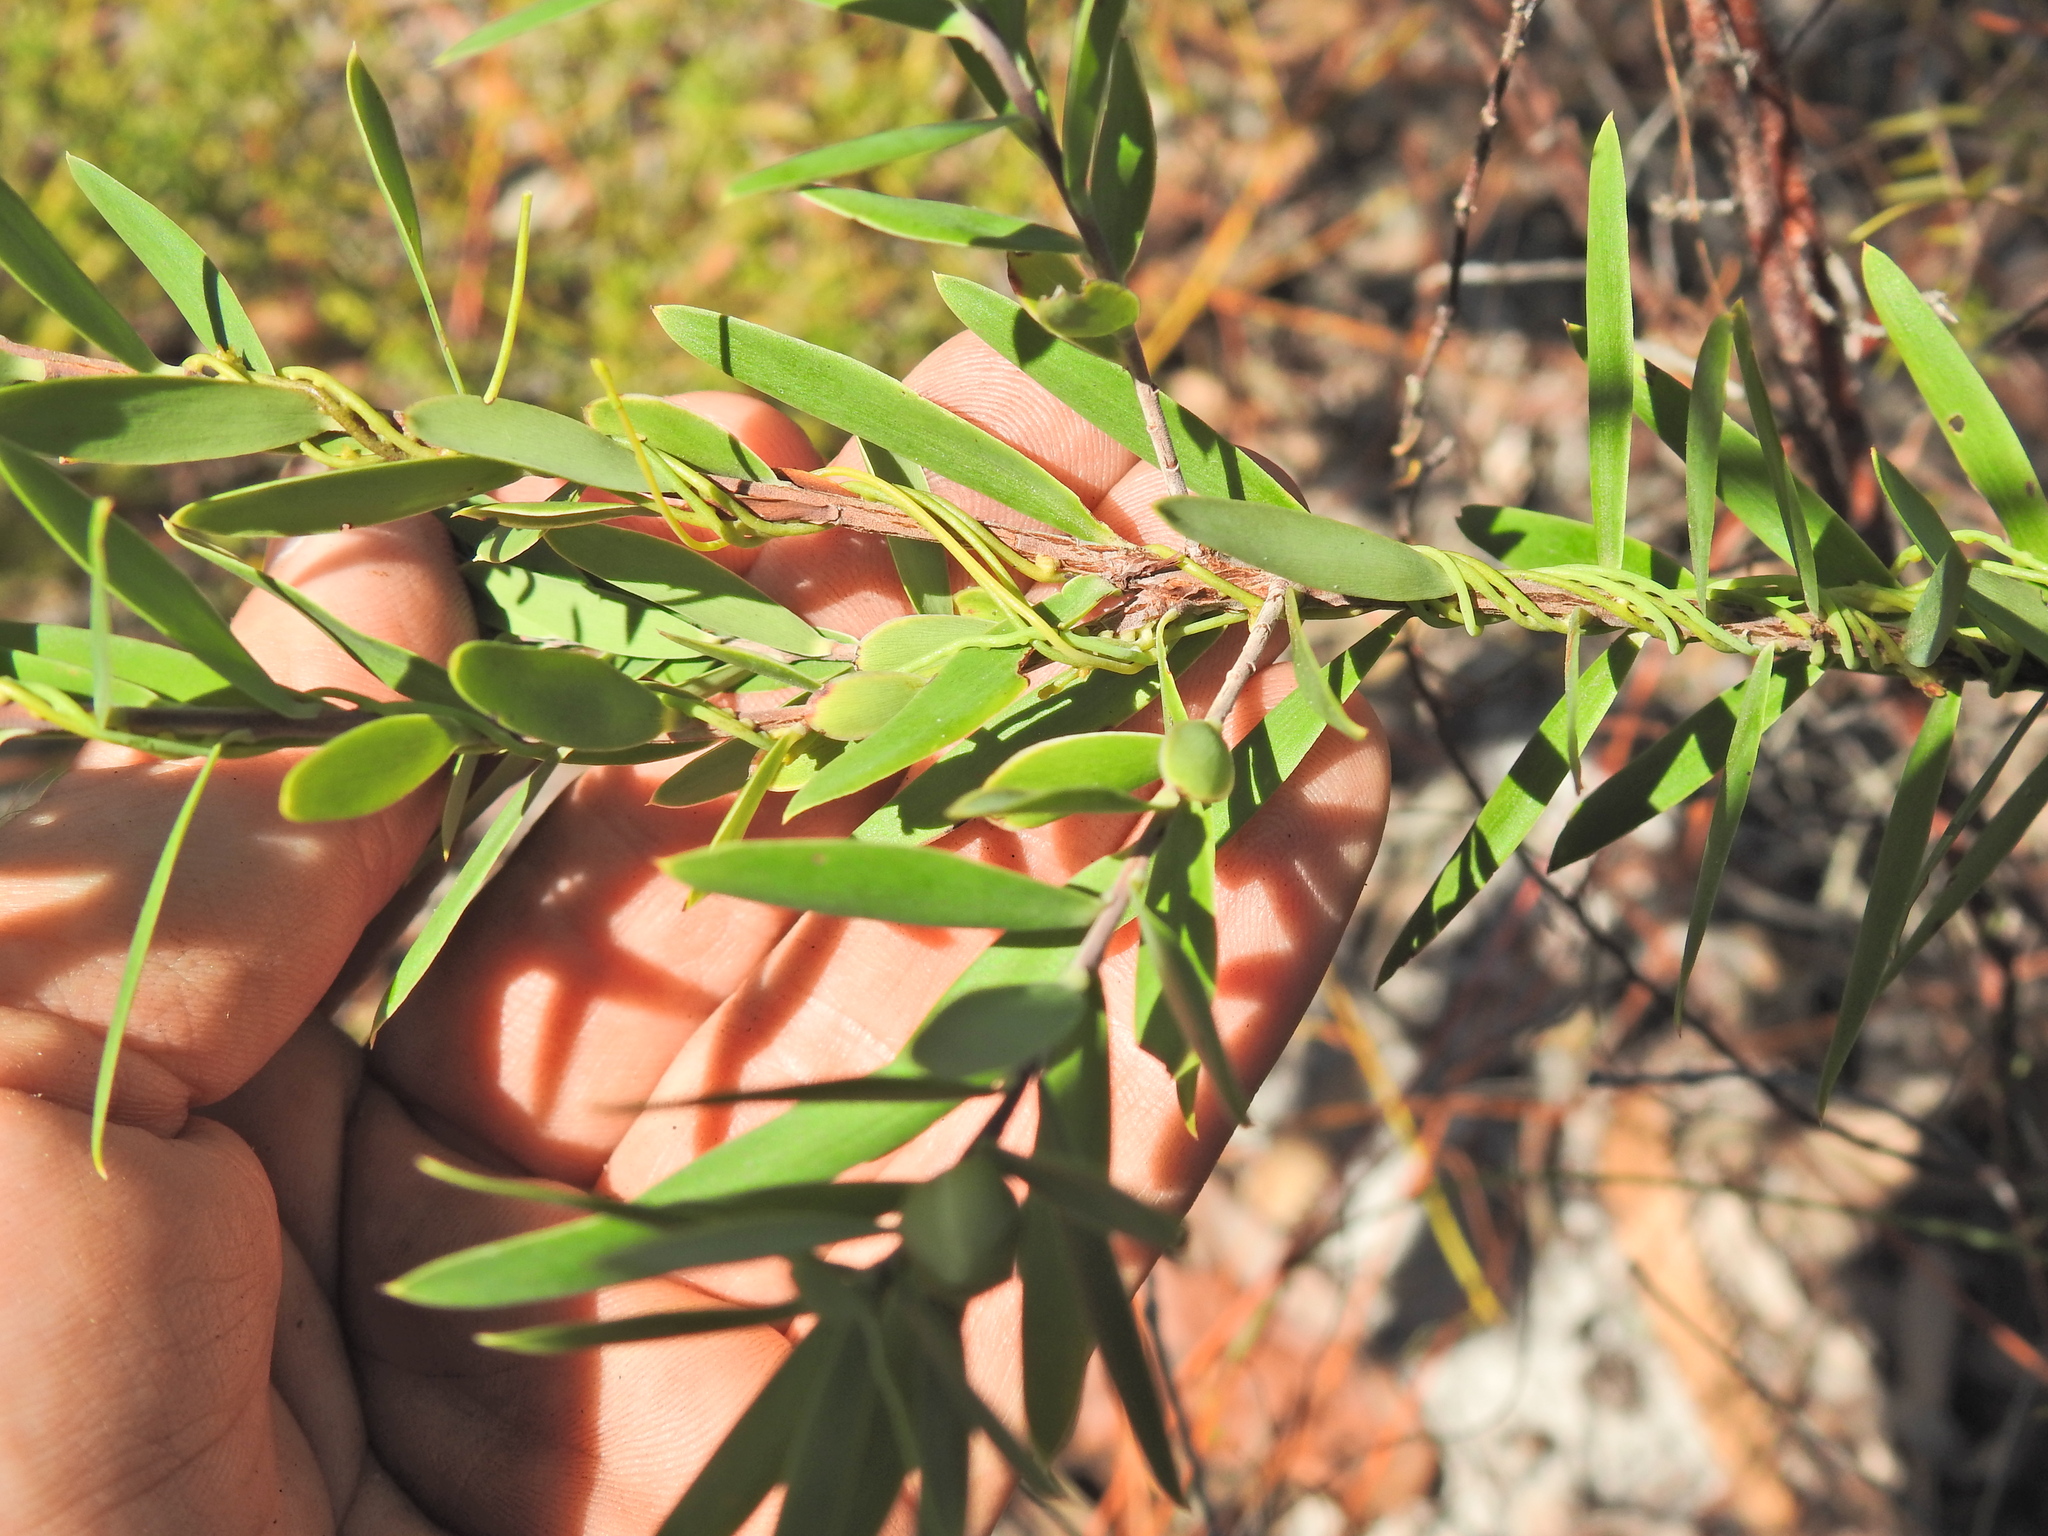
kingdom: Plantae
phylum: Tracheophyta
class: Magnoliopsida
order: Ericales
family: Ericaceae
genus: Styphelia
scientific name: Styphelia viridis
